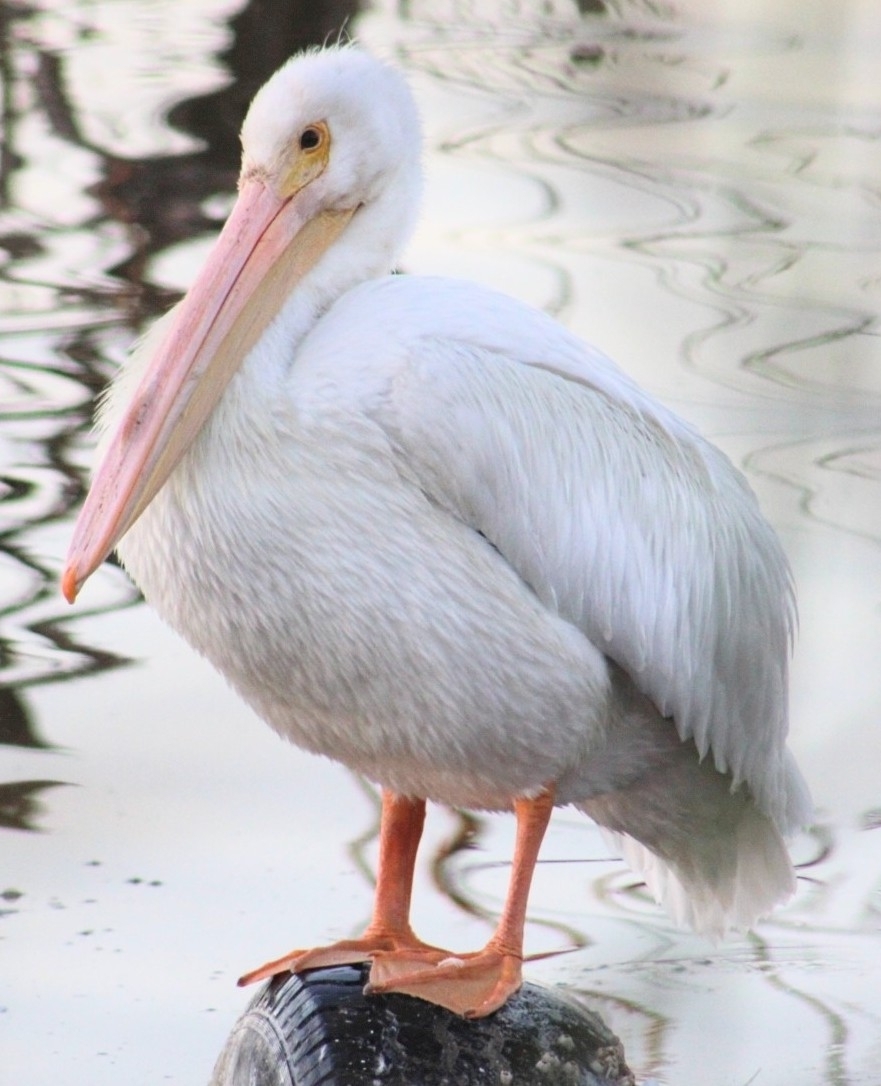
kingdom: Animalia
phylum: Chordata
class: Aves
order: Pelecaniformes
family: Pelecanidae
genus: Pelecanus
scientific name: Pelecanus erythrorhynchos
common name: American white pelican
